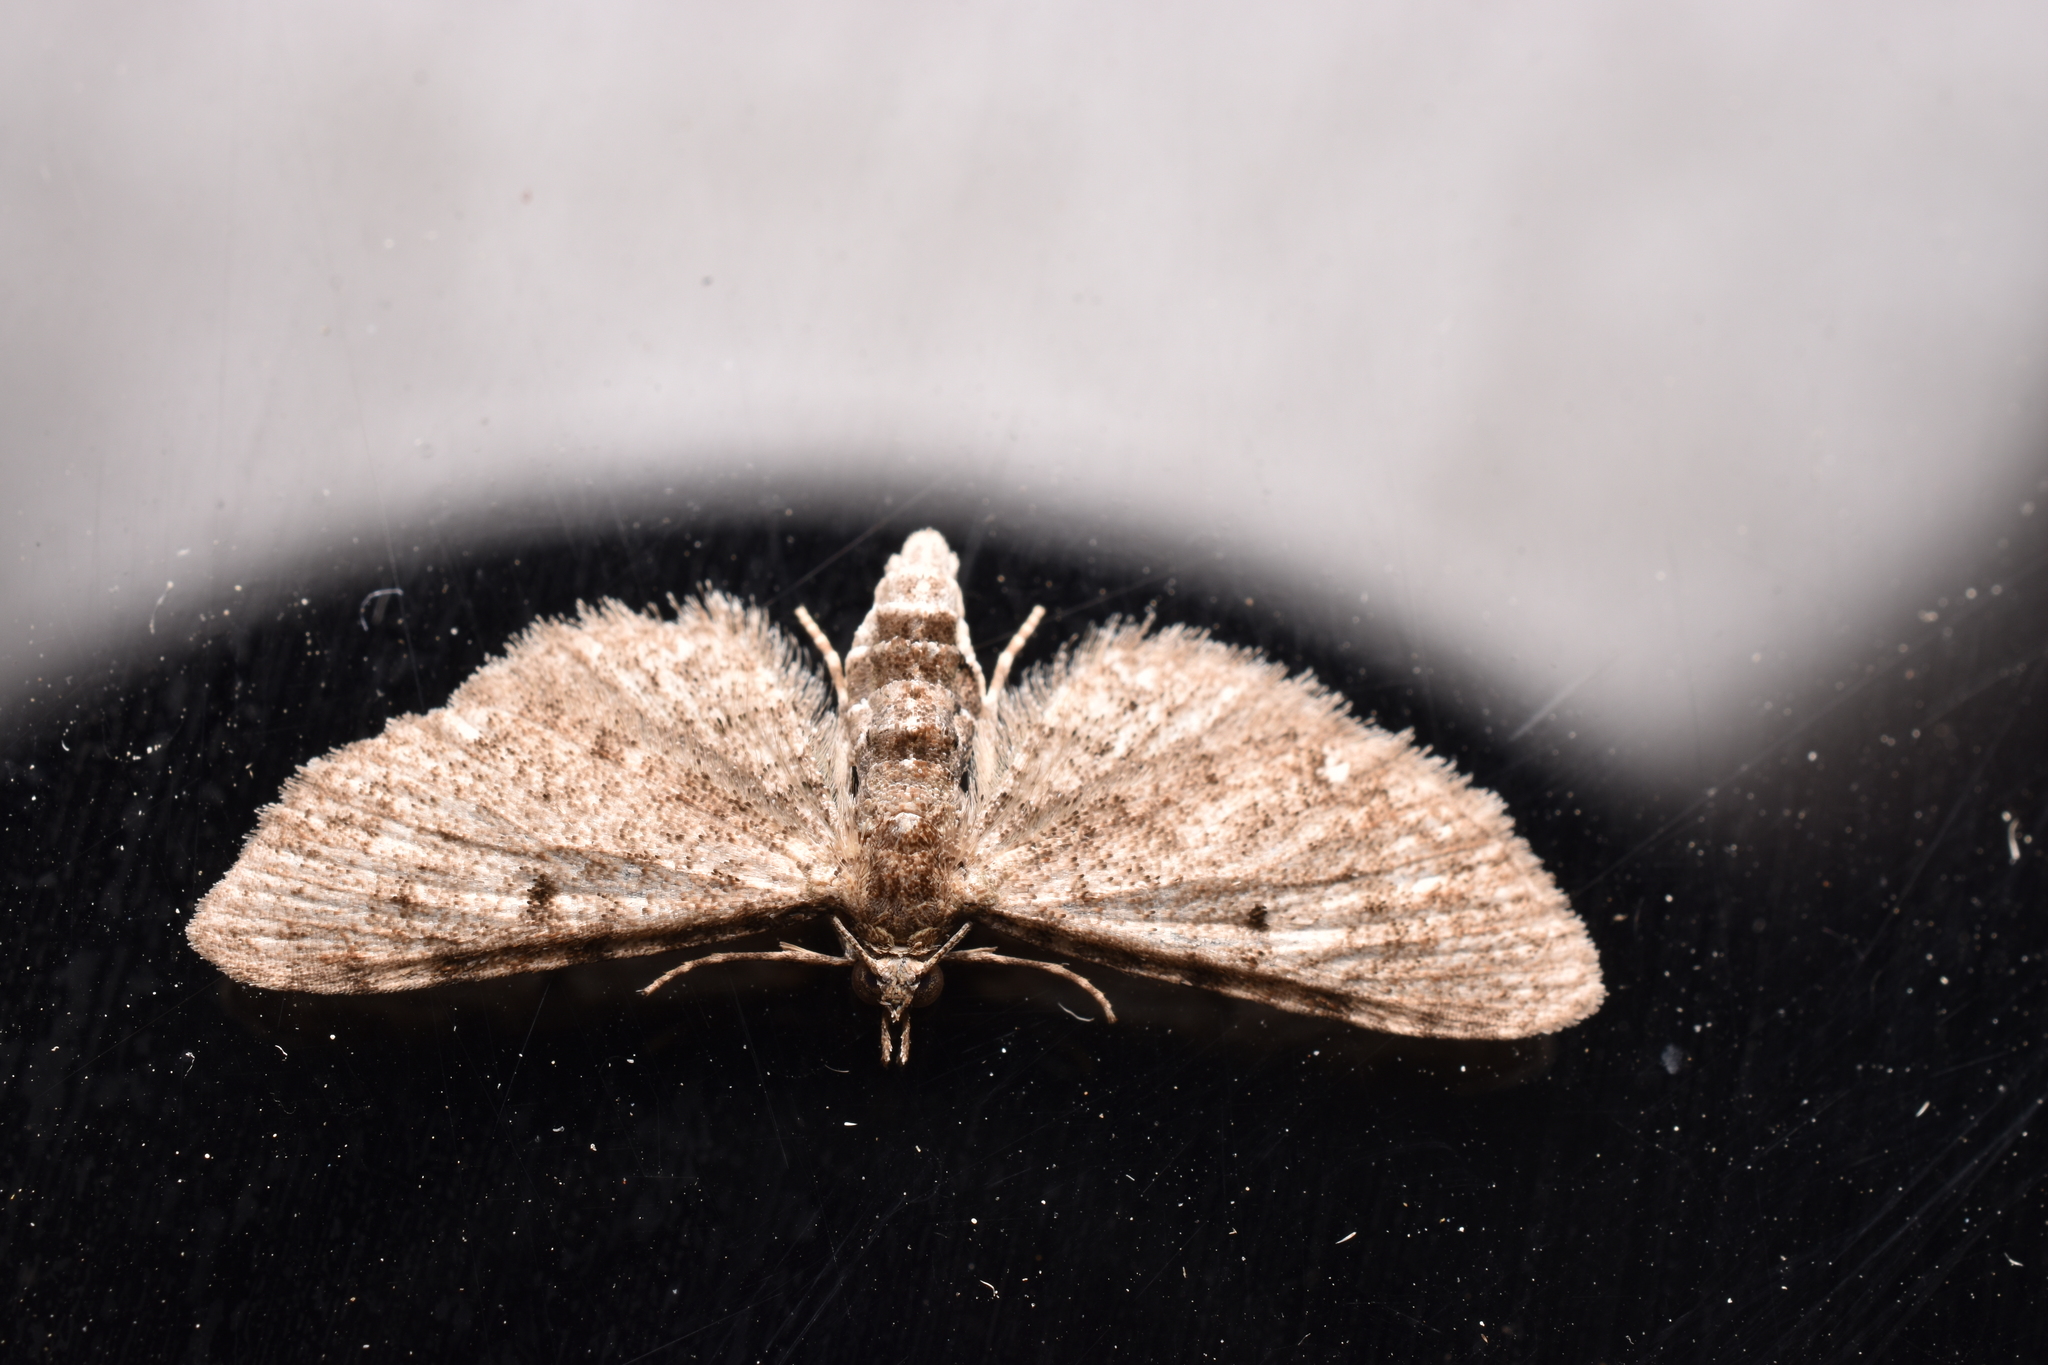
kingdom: Animalia
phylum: Arthropoda
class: Insecta
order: Lepidoptera
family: Geometridae
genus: Eupithecia
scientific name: Eupithecia miserulata
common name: Common eupithecia
